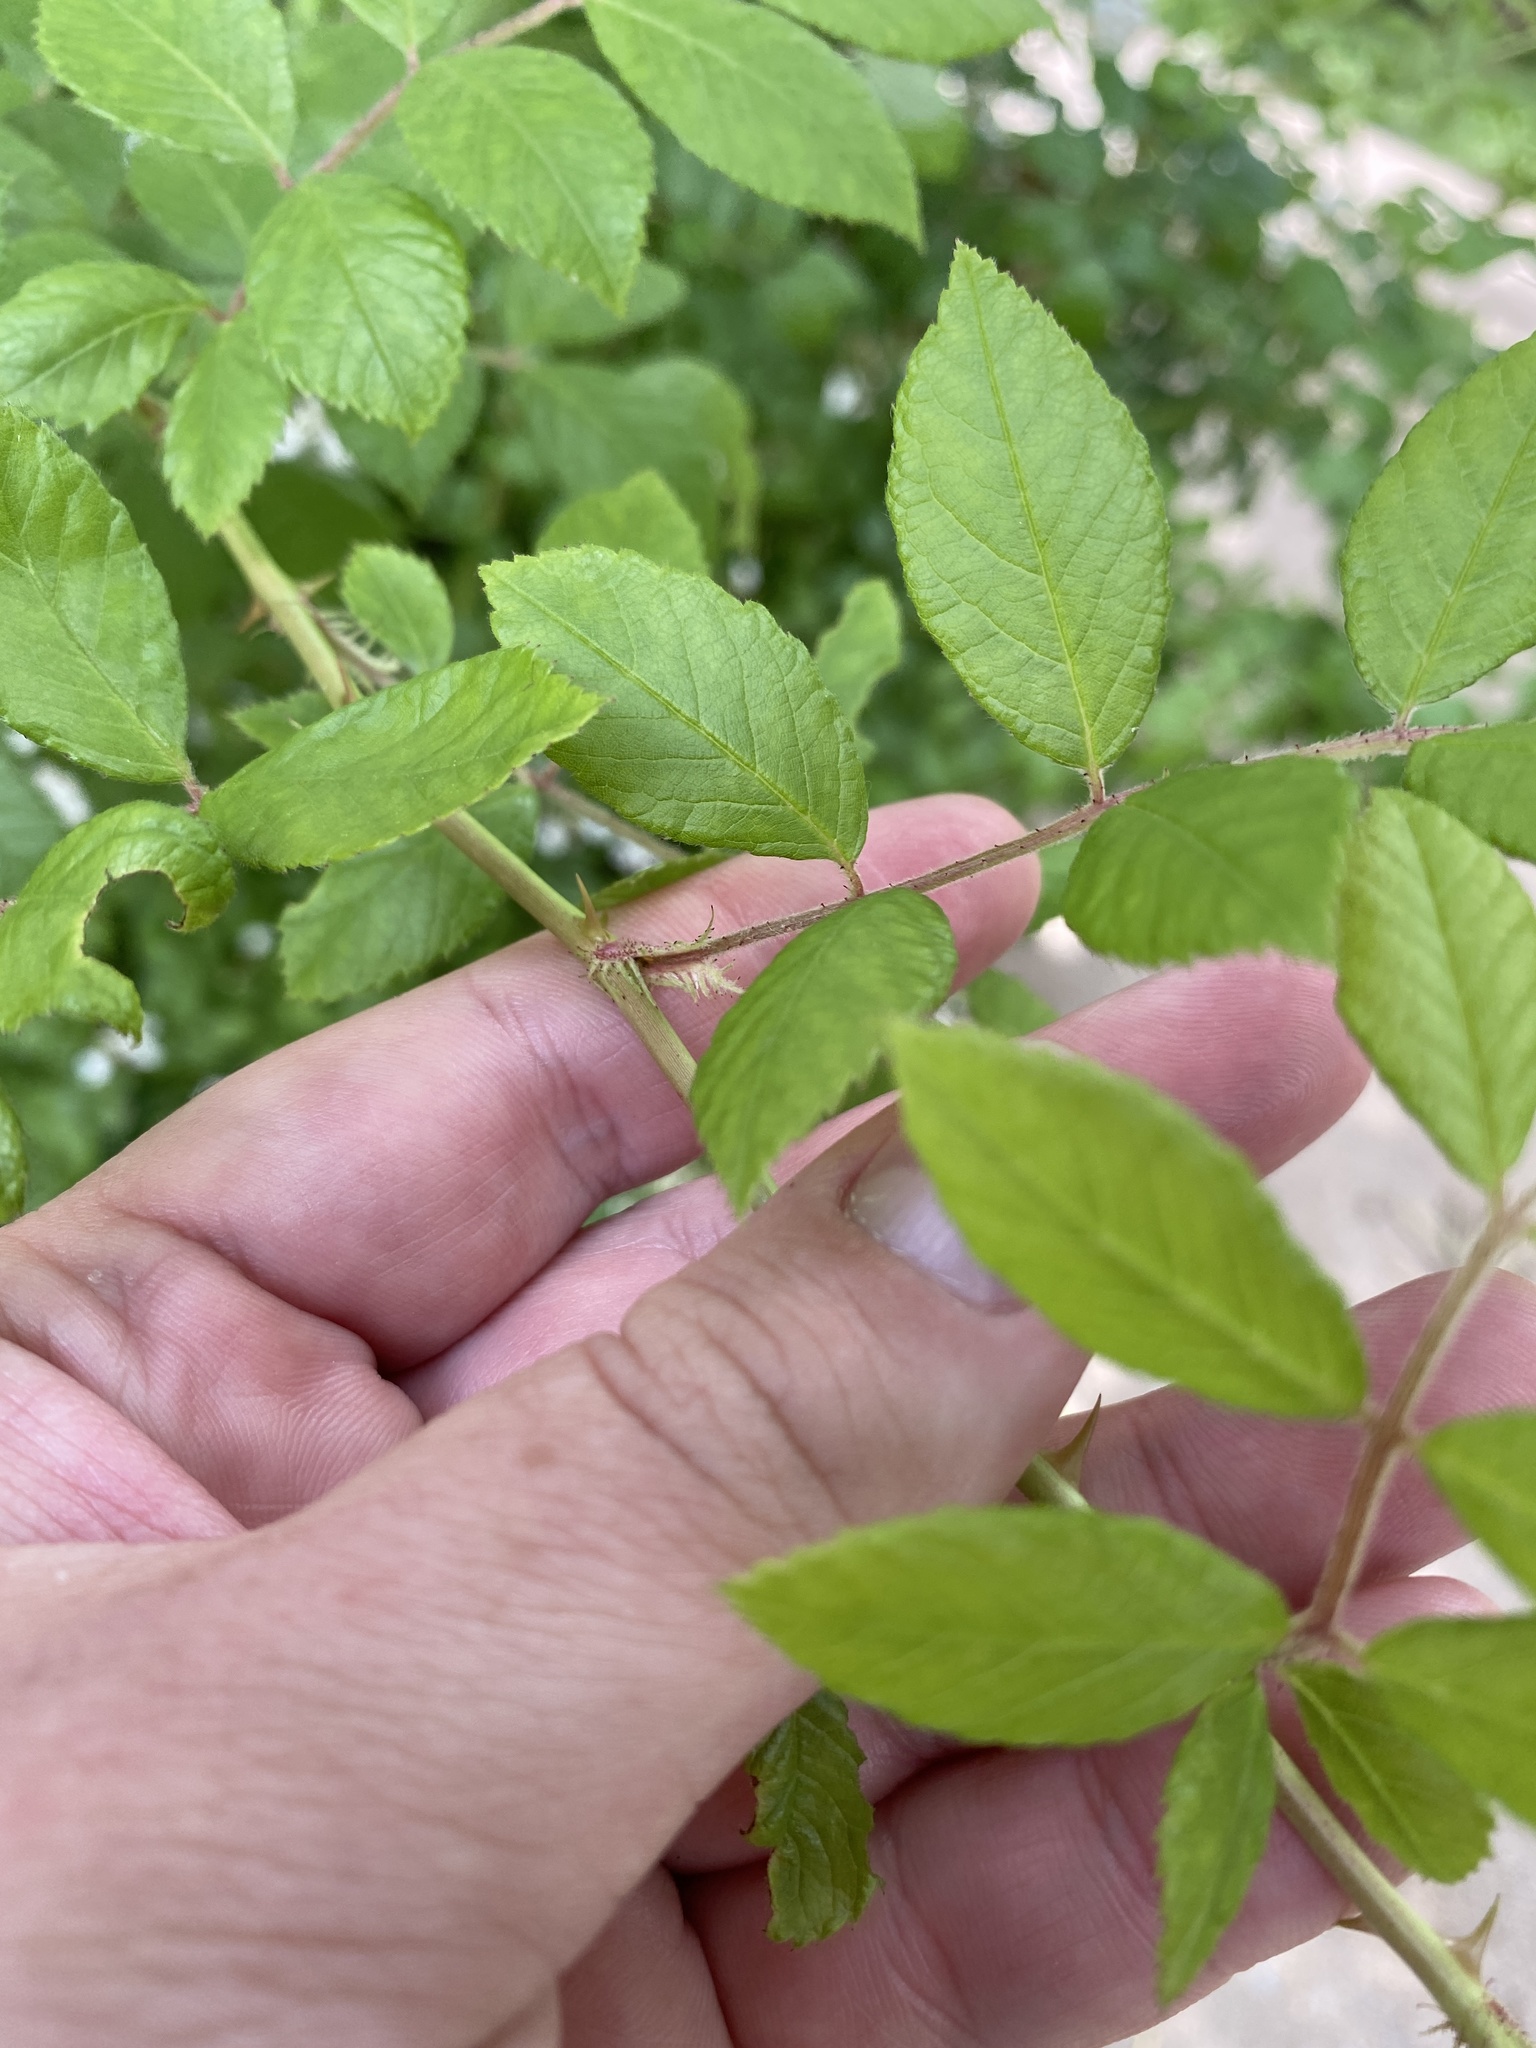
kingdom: Plantae
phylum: Tracheophyta
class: Magnoliopsida
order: Rosales
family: Rosaceae
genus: Rosa
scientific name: Rosa multiflora
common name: Multiflora rose
